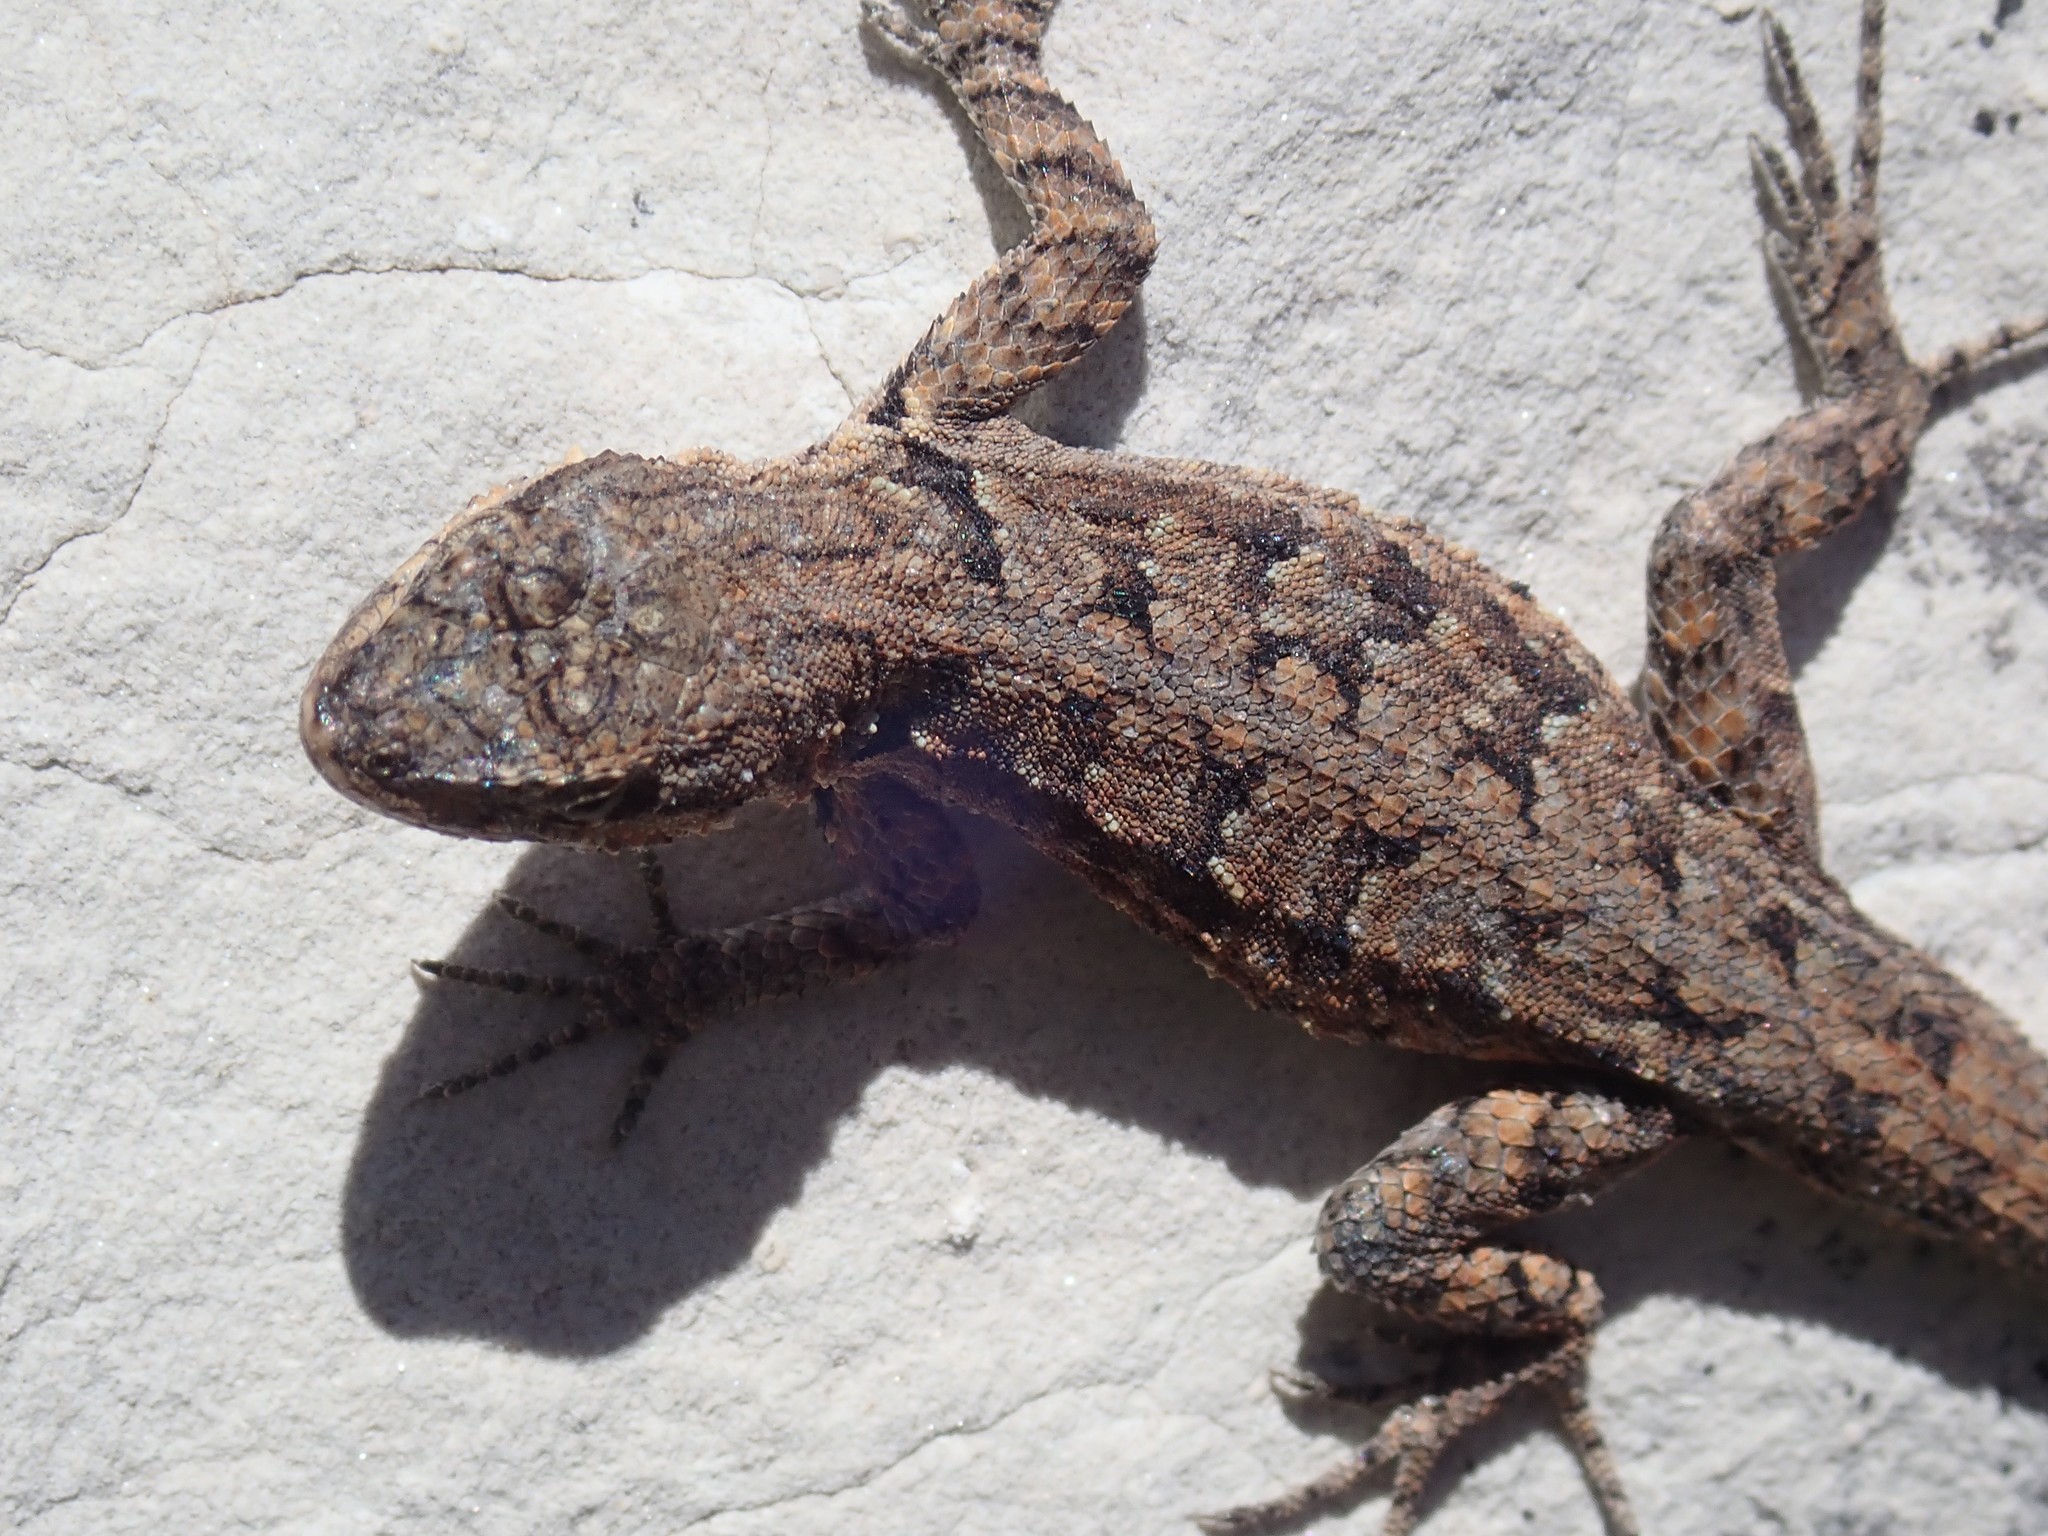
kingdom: Animalia
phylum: Chordata
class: Squamata
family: Phrynosomatidae
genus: Urosaurus
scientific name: Urosaurus ornatus
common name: Ornate tree lizard
